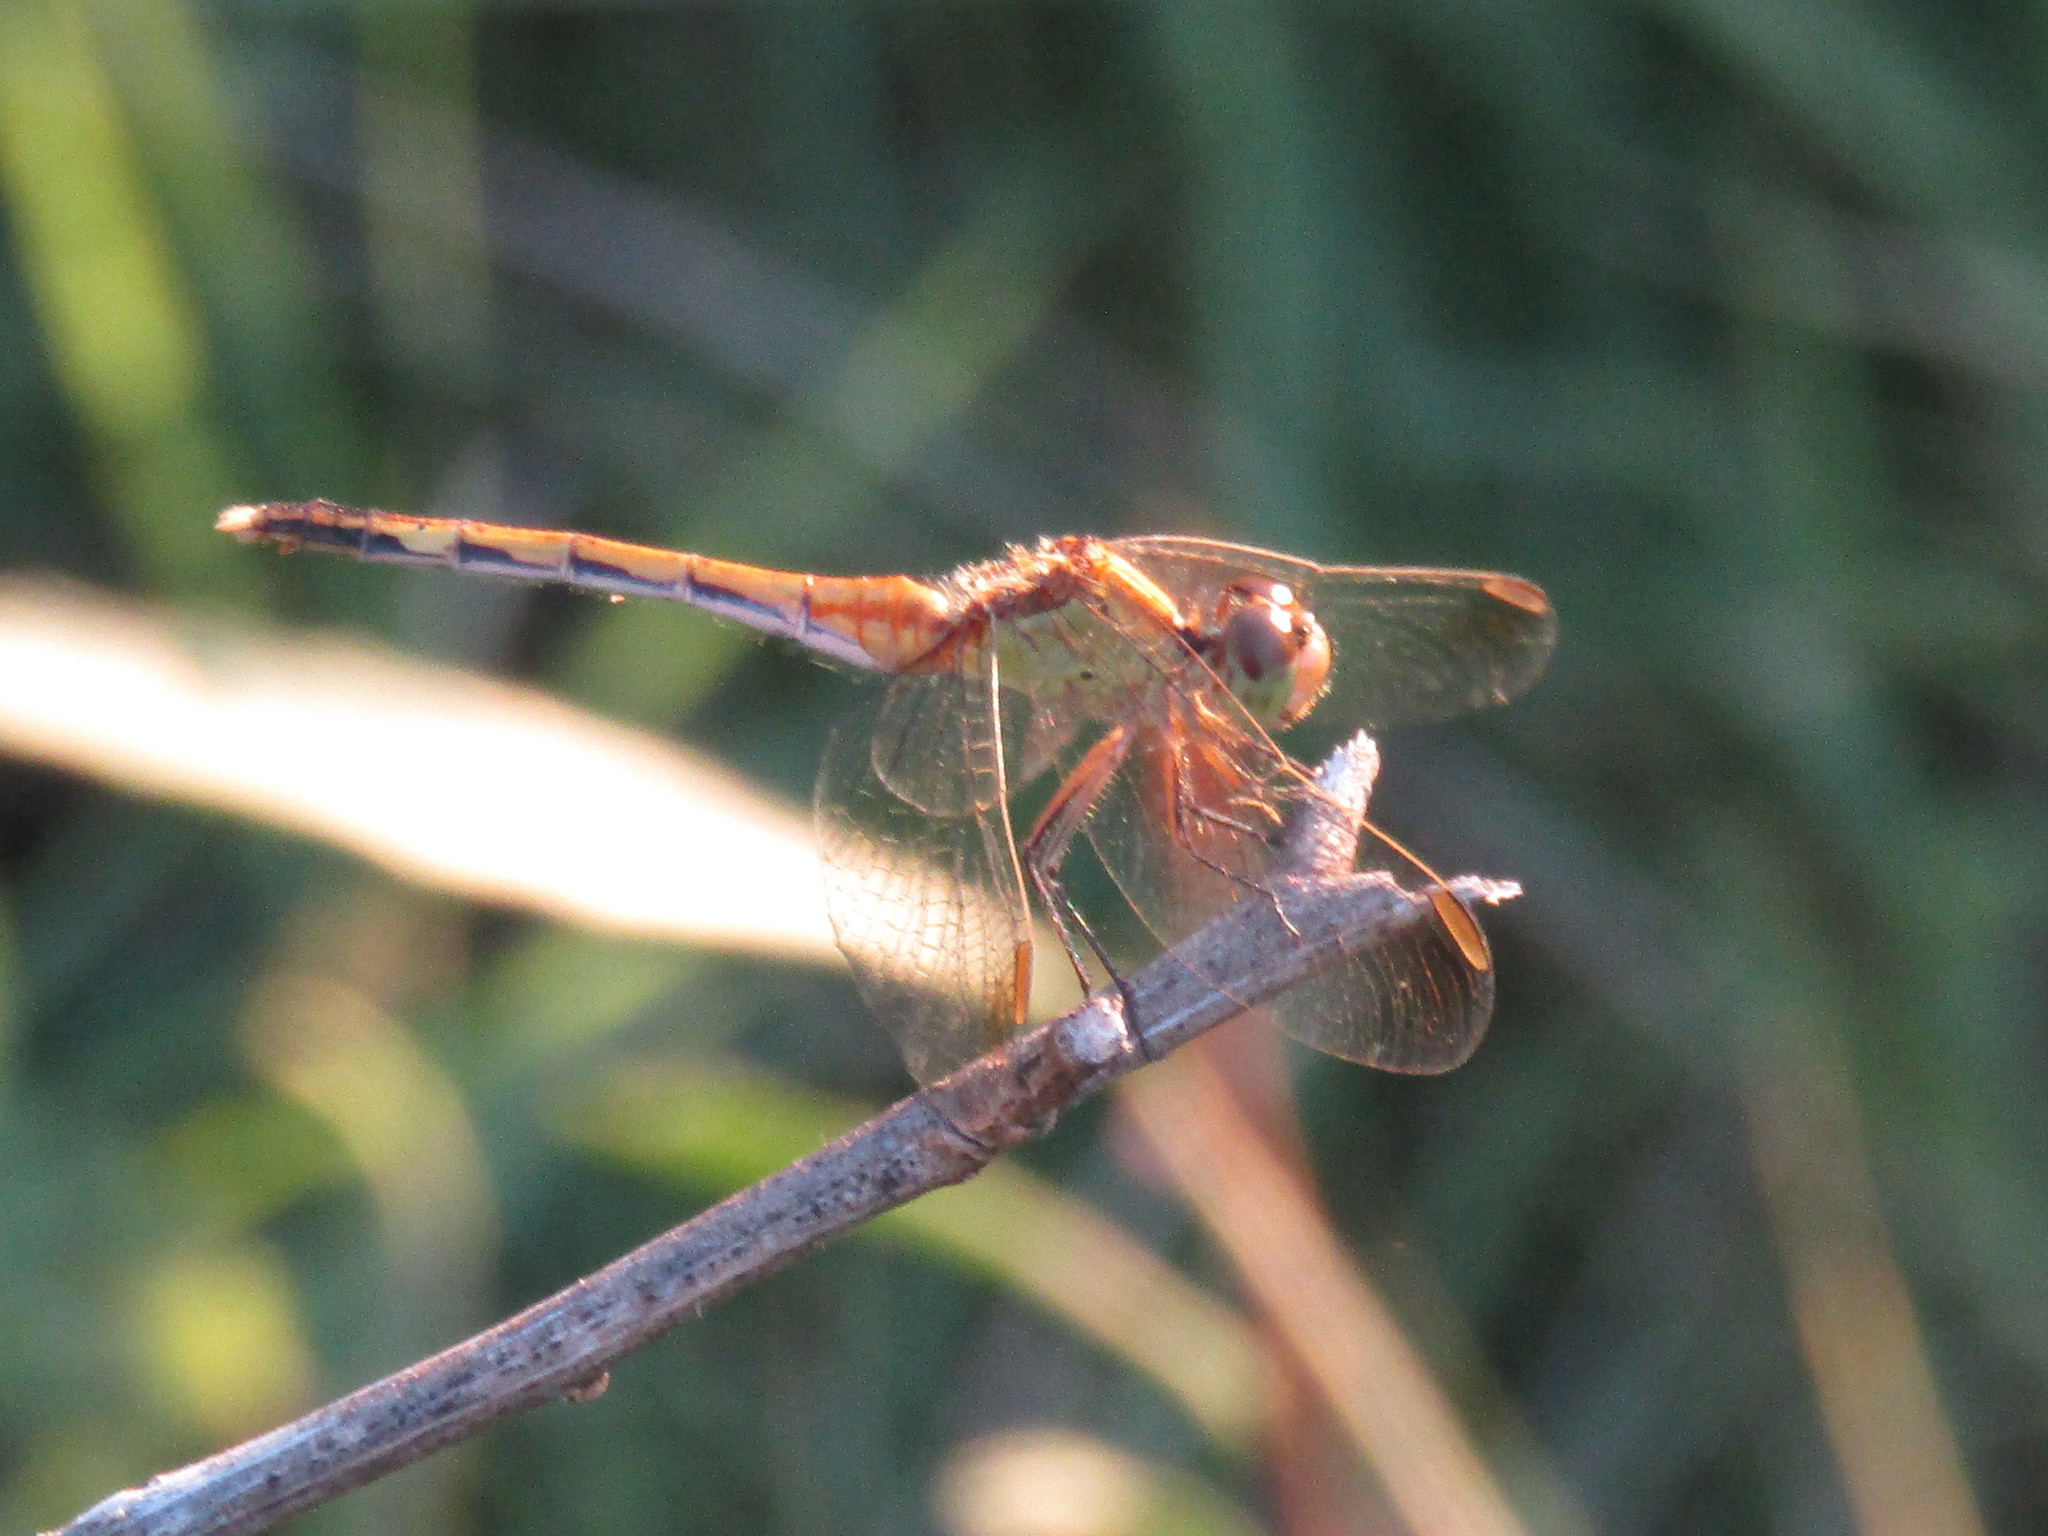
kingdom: Animalia
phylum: Arthropoda
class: Insecta
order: Odonata
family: Libellulidae
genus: Erythrodiplax
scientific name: Erythrodiplax nigricans
